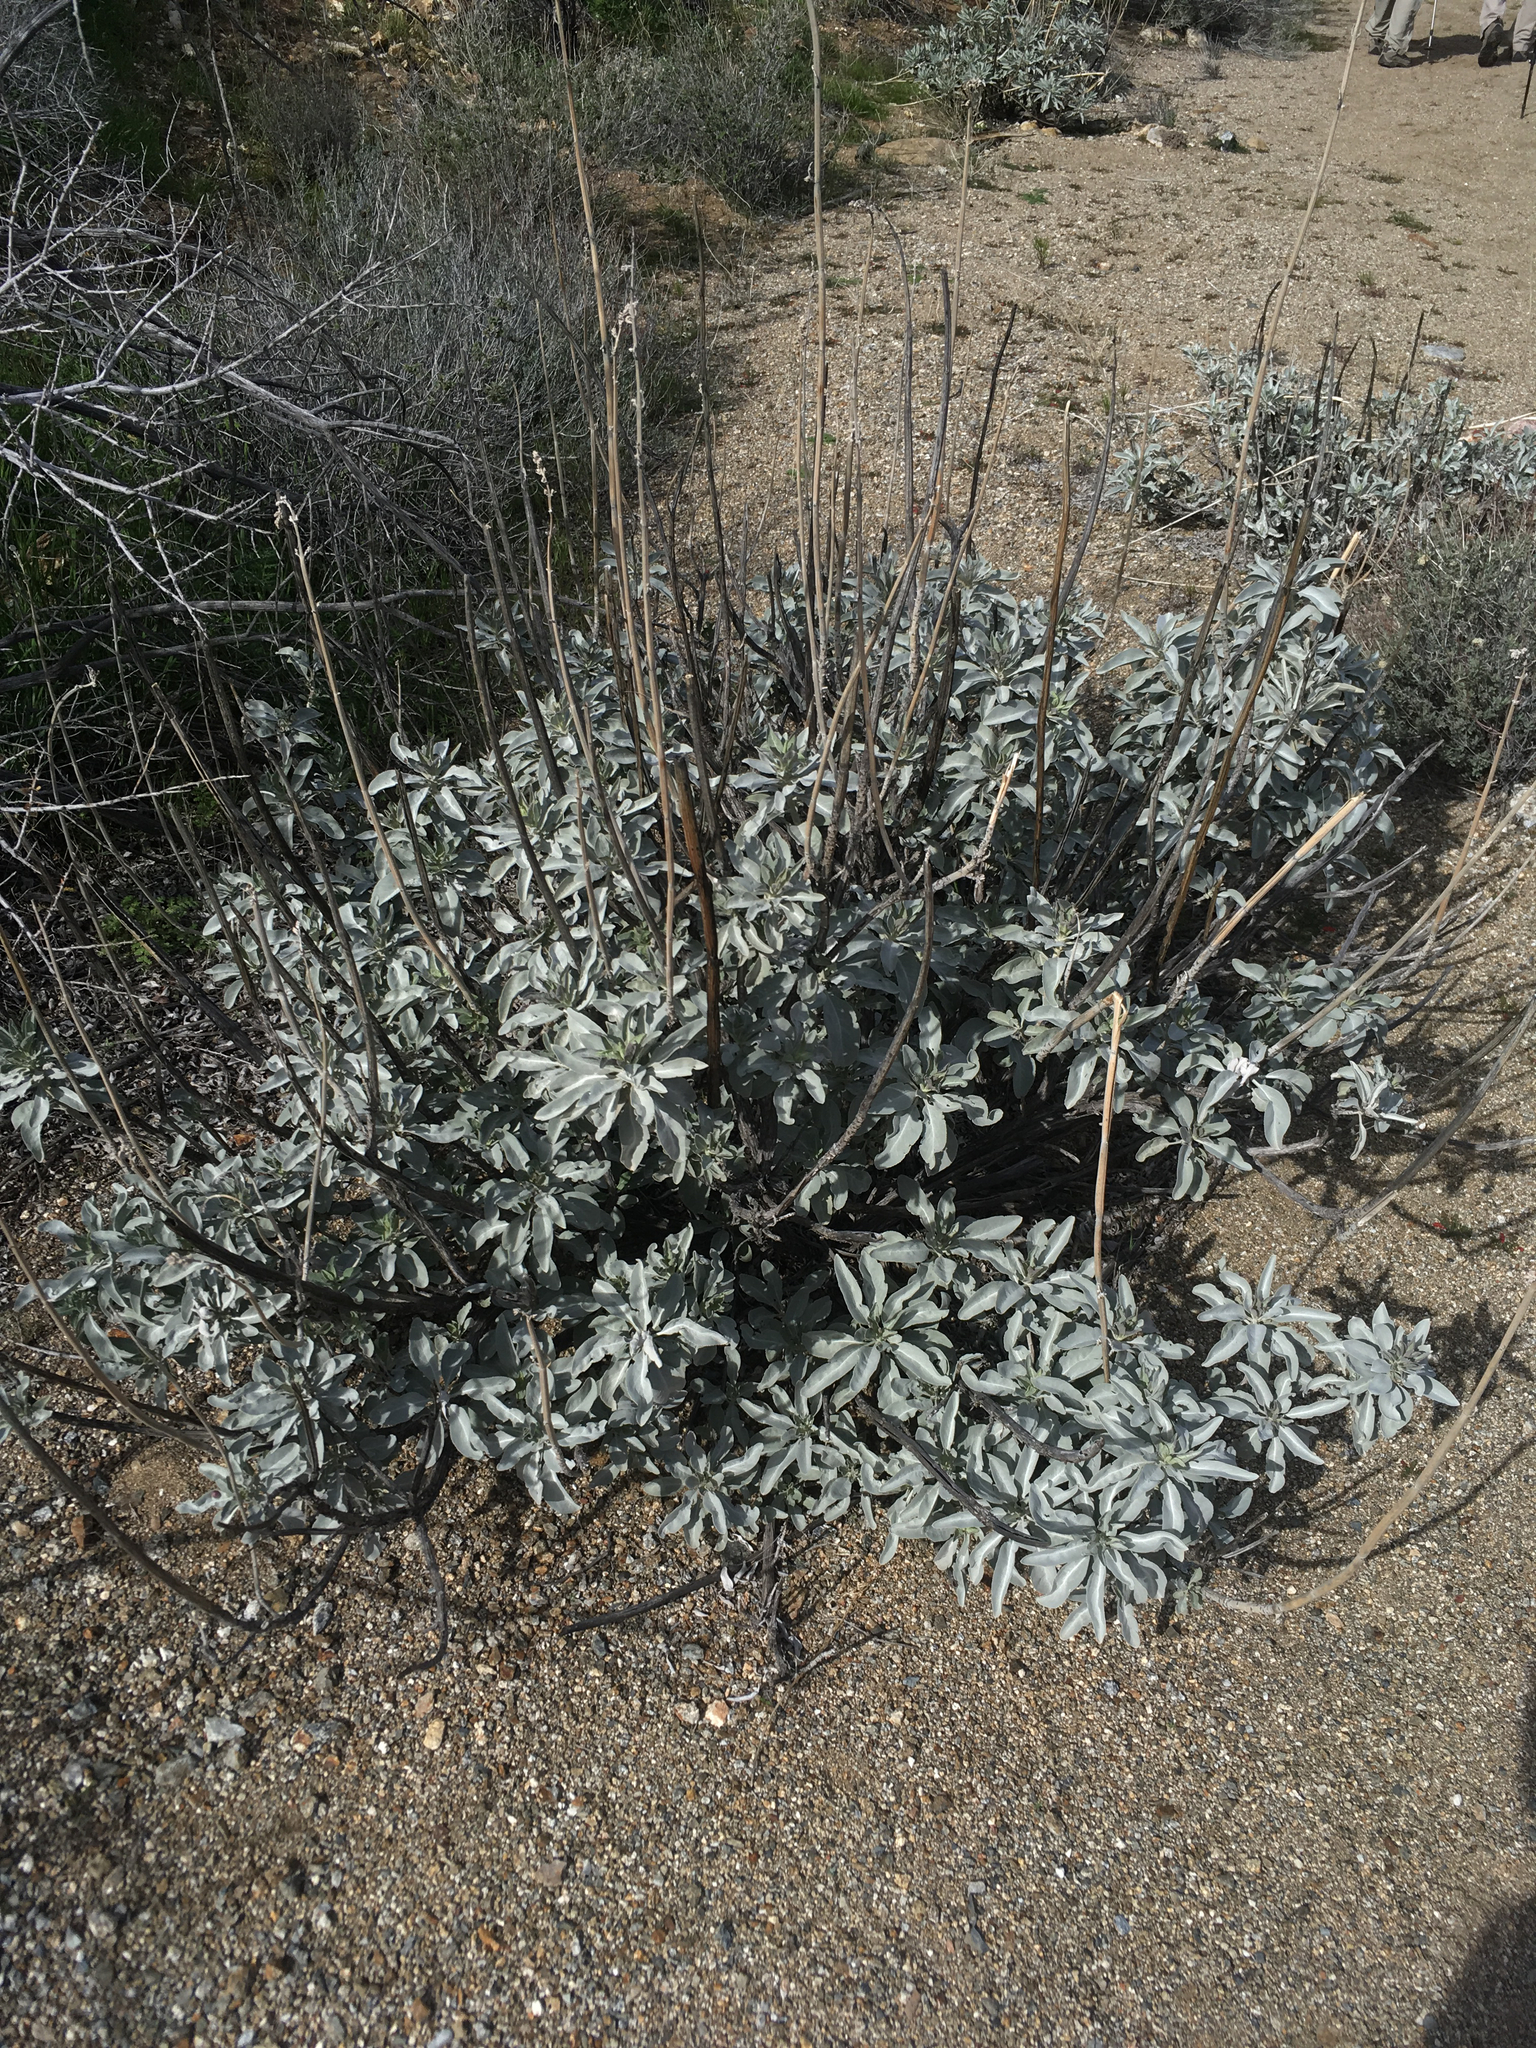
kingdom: Plantae
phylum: Tracheophyta
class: Magnoliopsida
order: Lamiales
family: Lamiaceae
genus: Salvia
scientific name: Salvia apiana
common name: White sage
